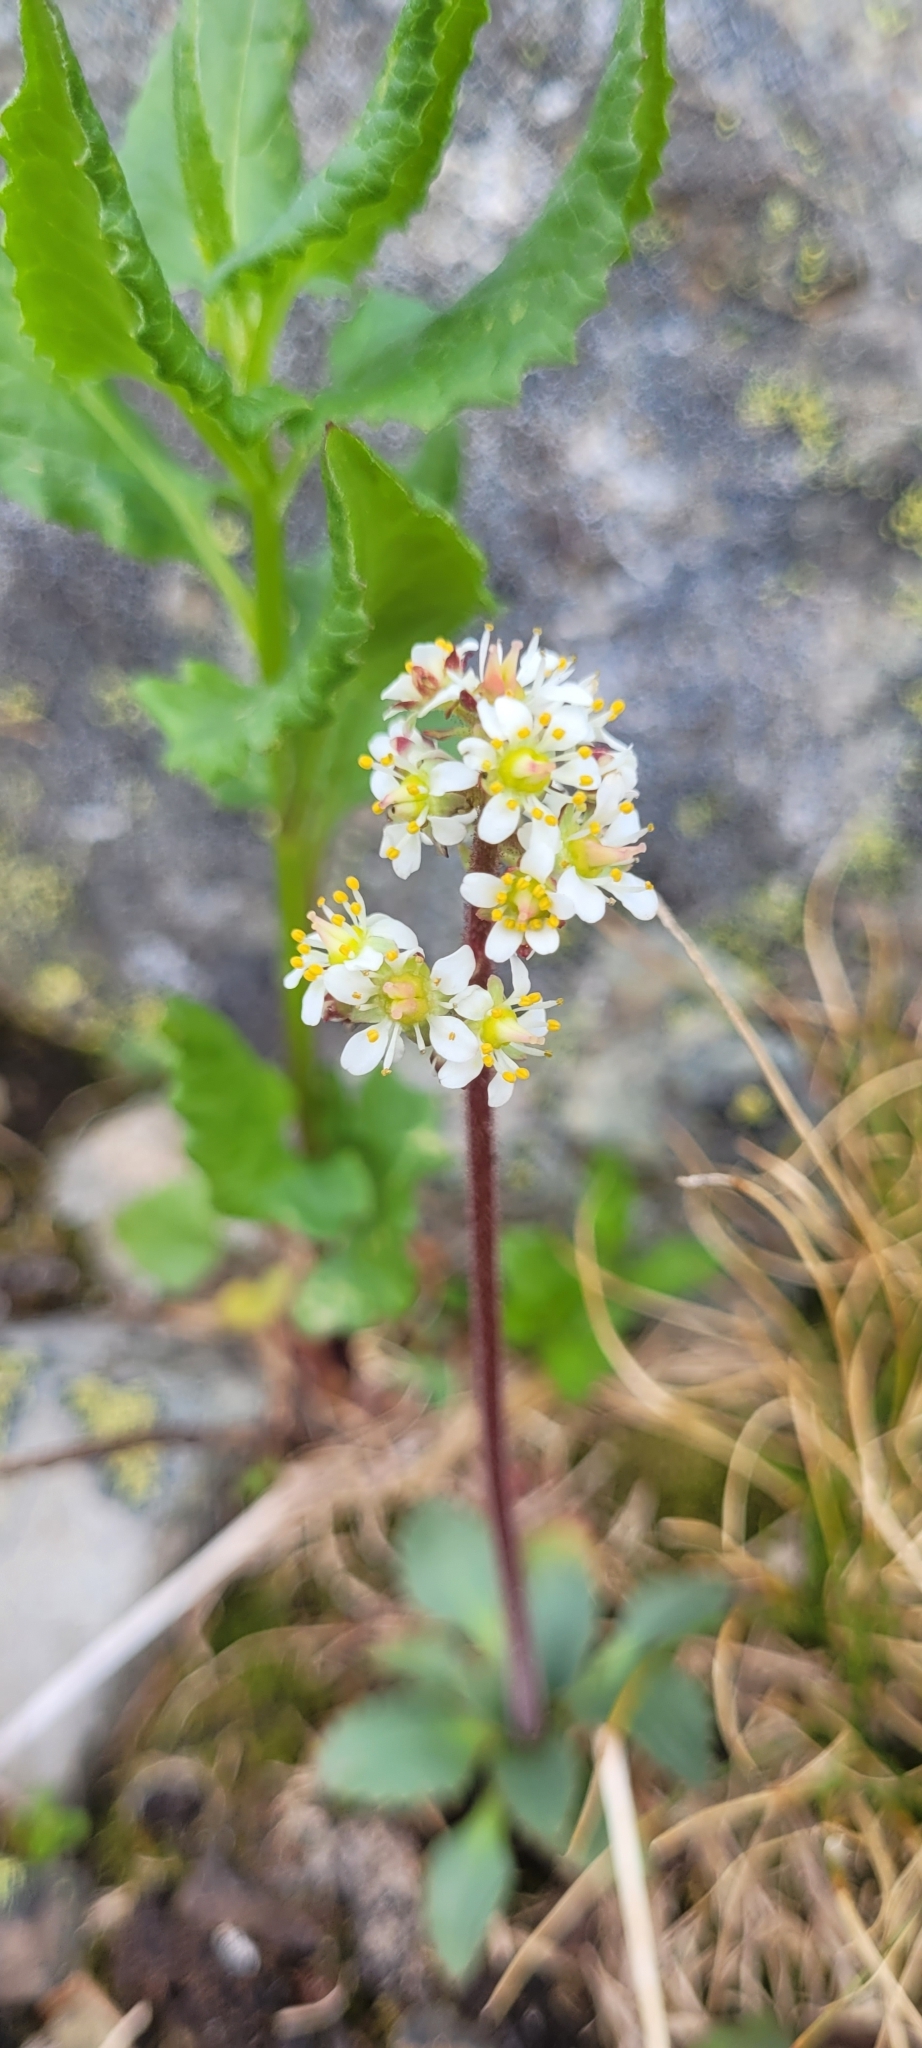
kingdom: Plantae
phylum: Tracheophyta
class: Magnoliopsida
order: Saxifragales
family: Saxifragaceae
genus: Micranthes
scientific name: Micranthes occidentalis
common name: Alberta saxifrage
